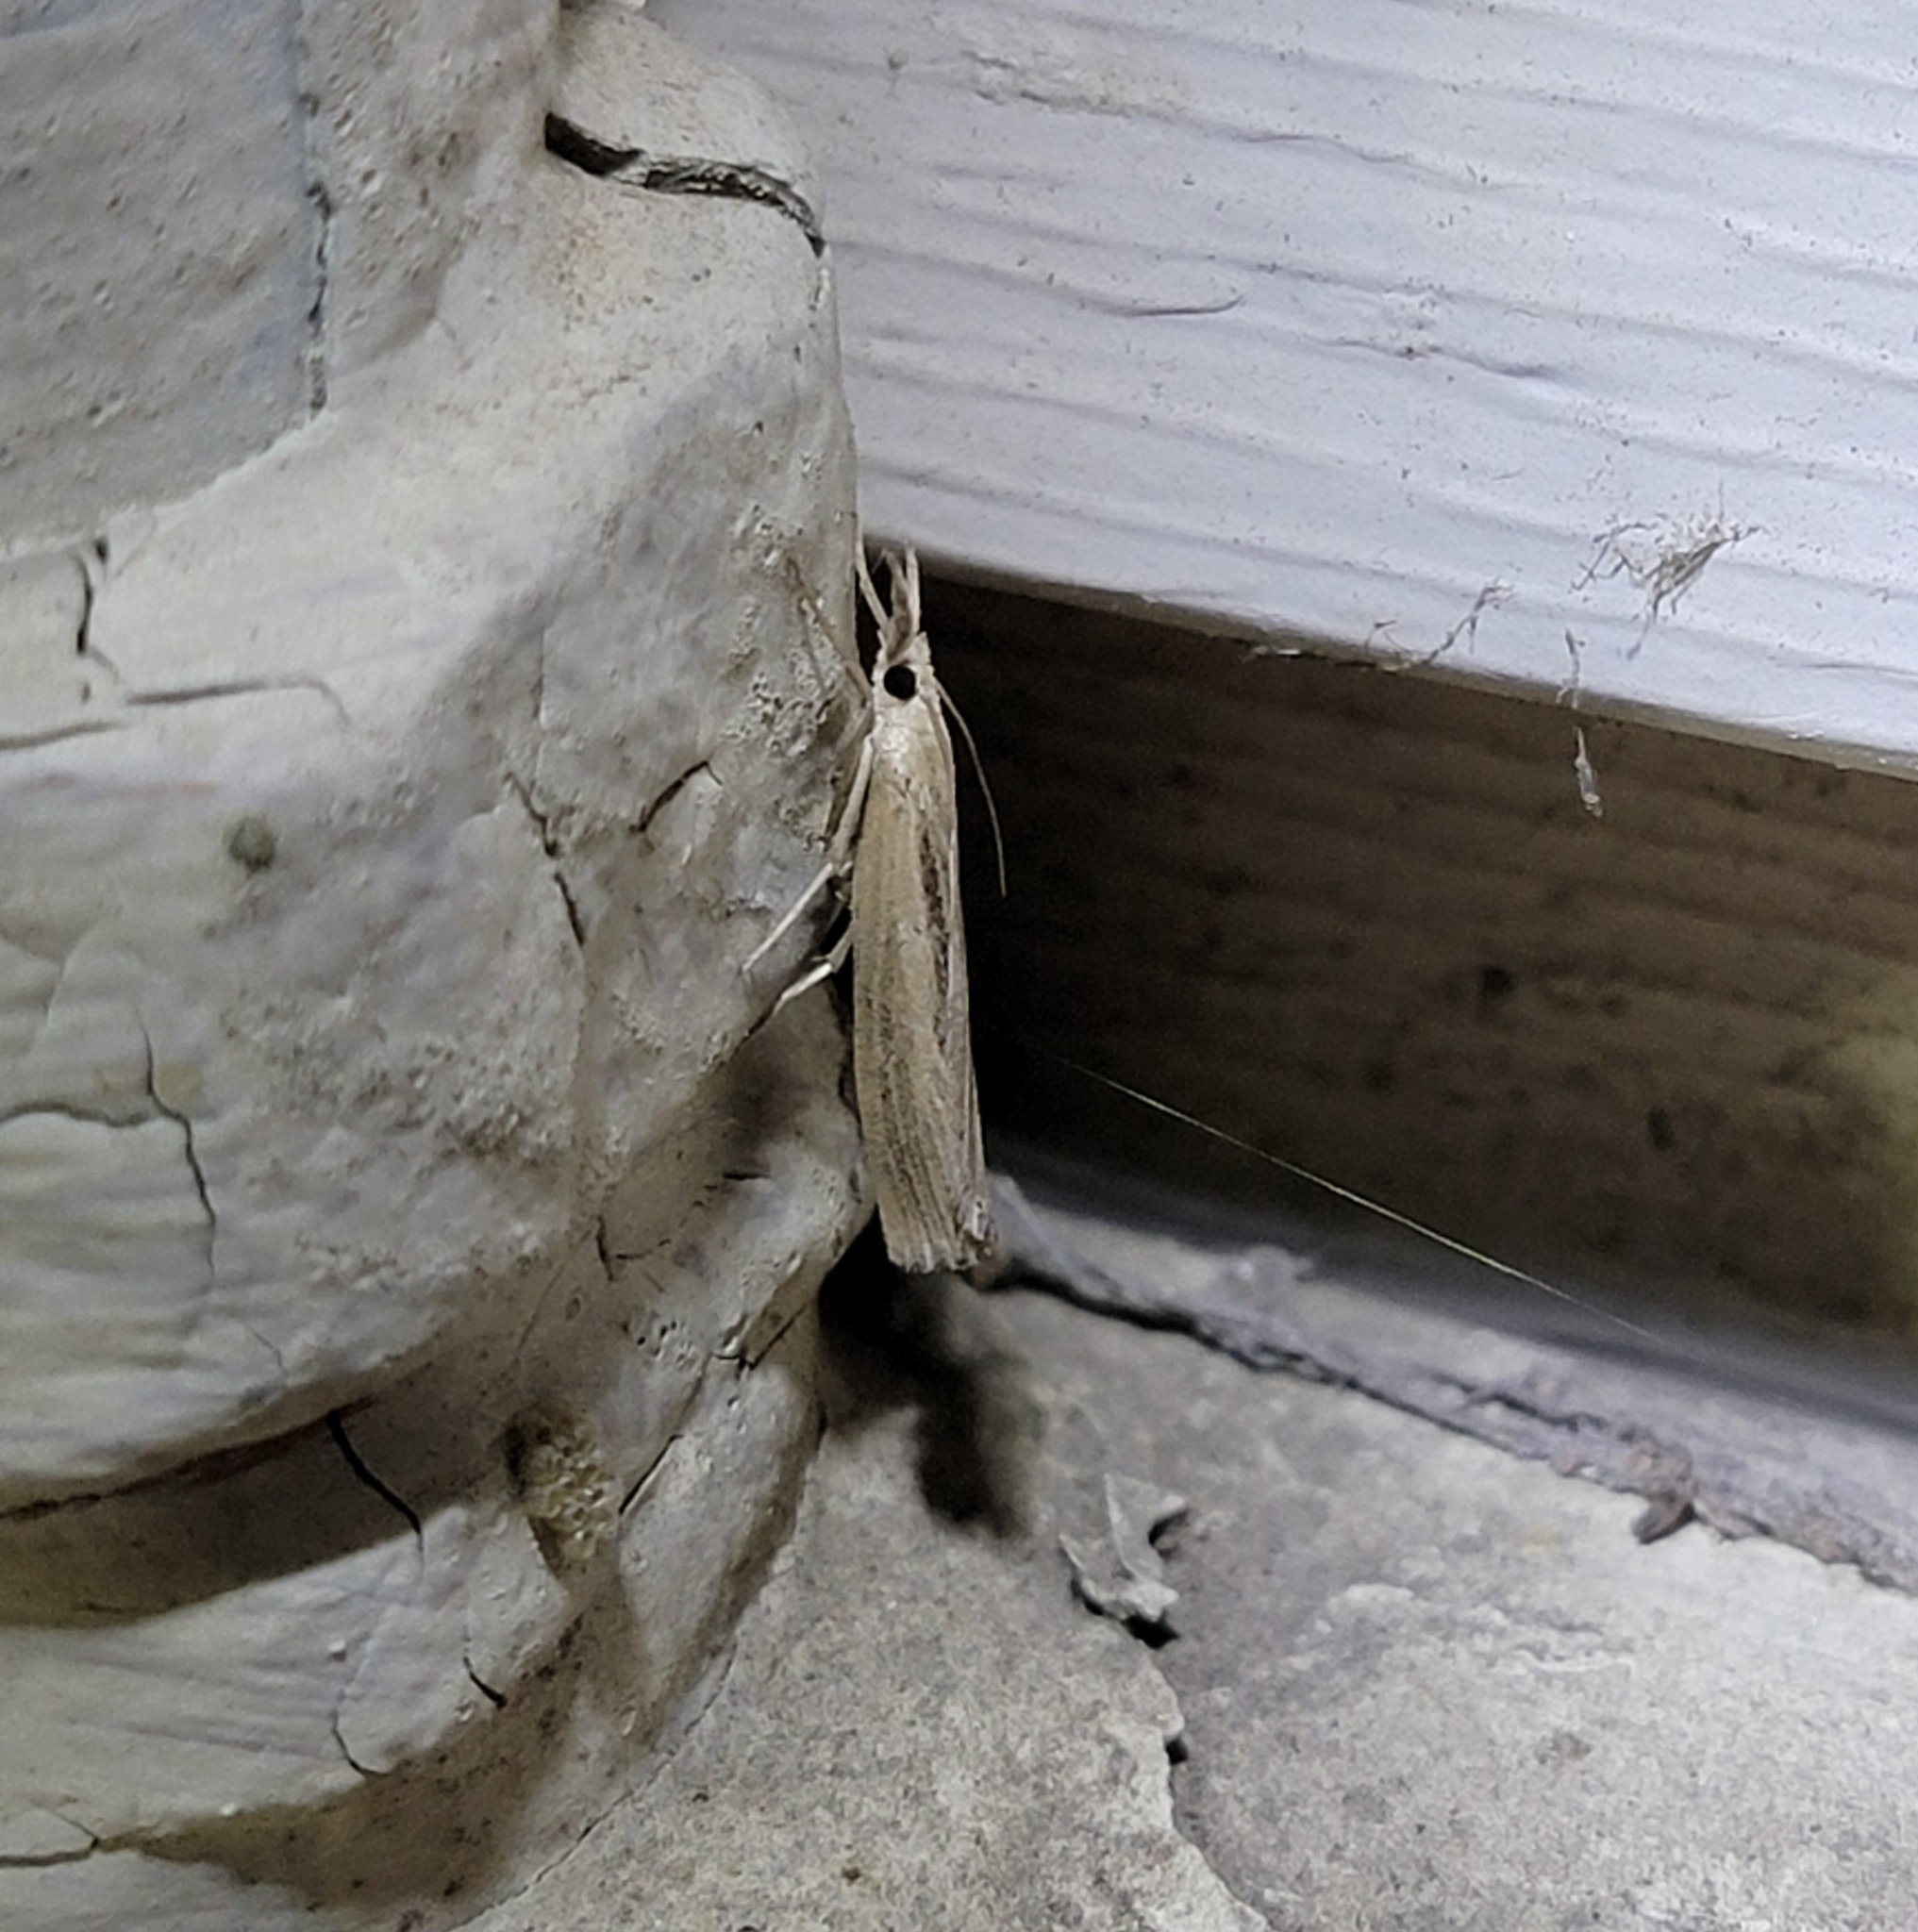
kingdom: Animalia
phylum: Arthropoda
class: Insecta
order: Lepidoptera
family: Crambidae
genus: Pediasia
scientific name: Pediasia trisecta
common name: Sod webworm moth
